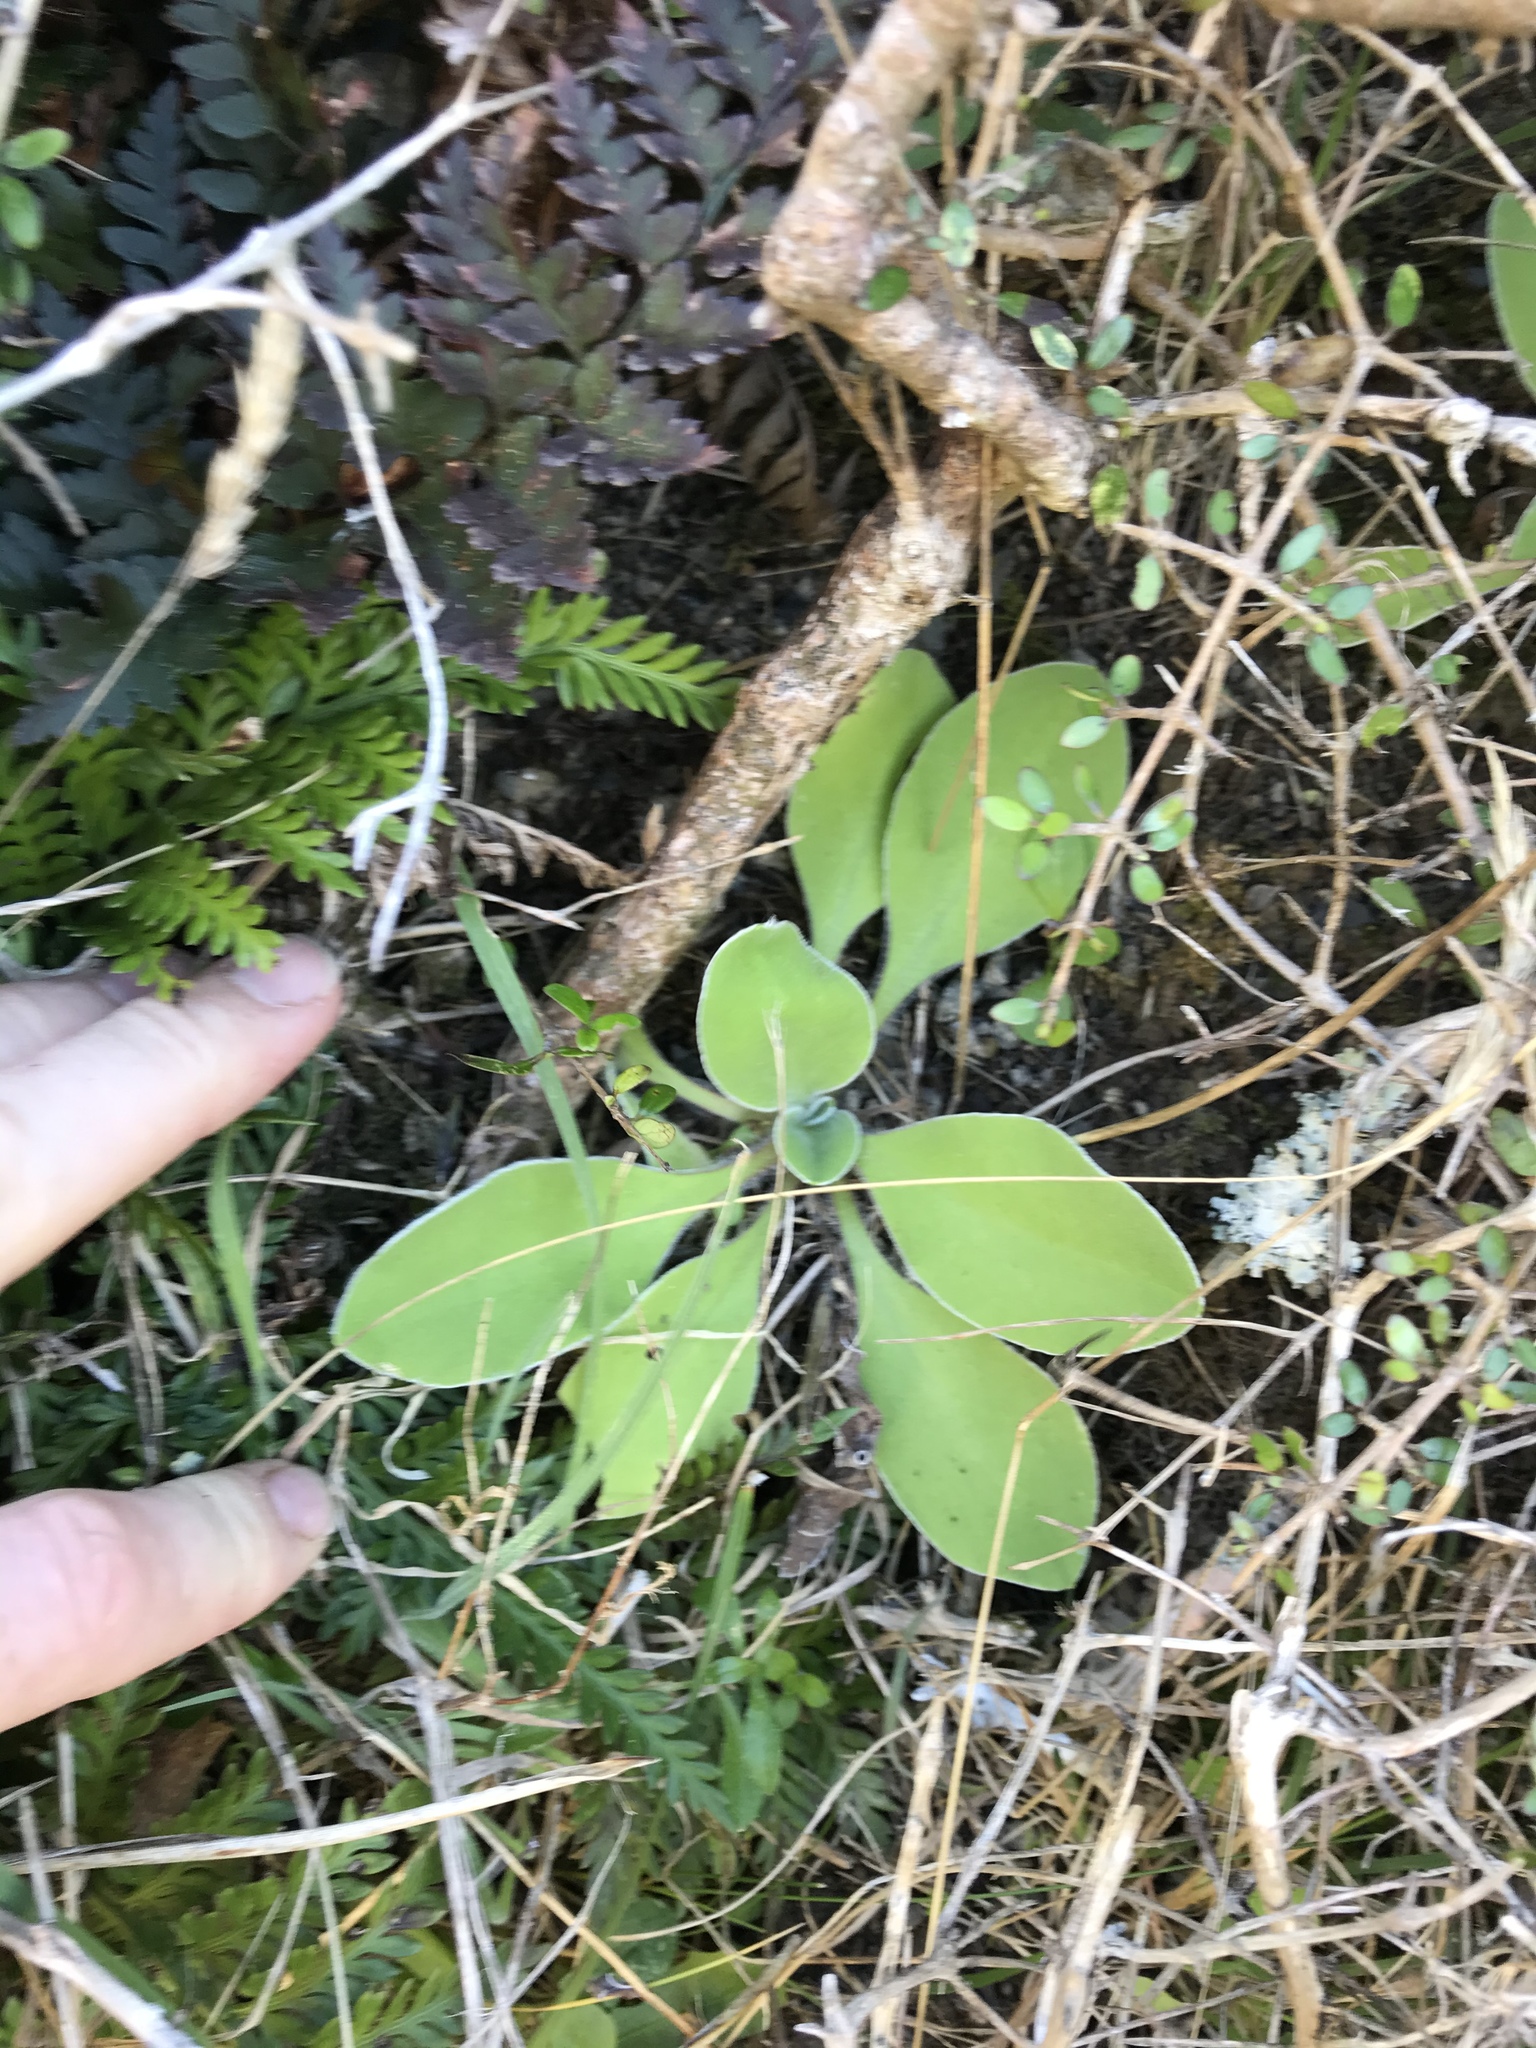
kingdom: Plantae
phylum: Tracheophyta
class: Magnoliopsida
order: Asterales
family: Asteraceae
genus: Craspedia
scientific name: Craspedia uniflora
